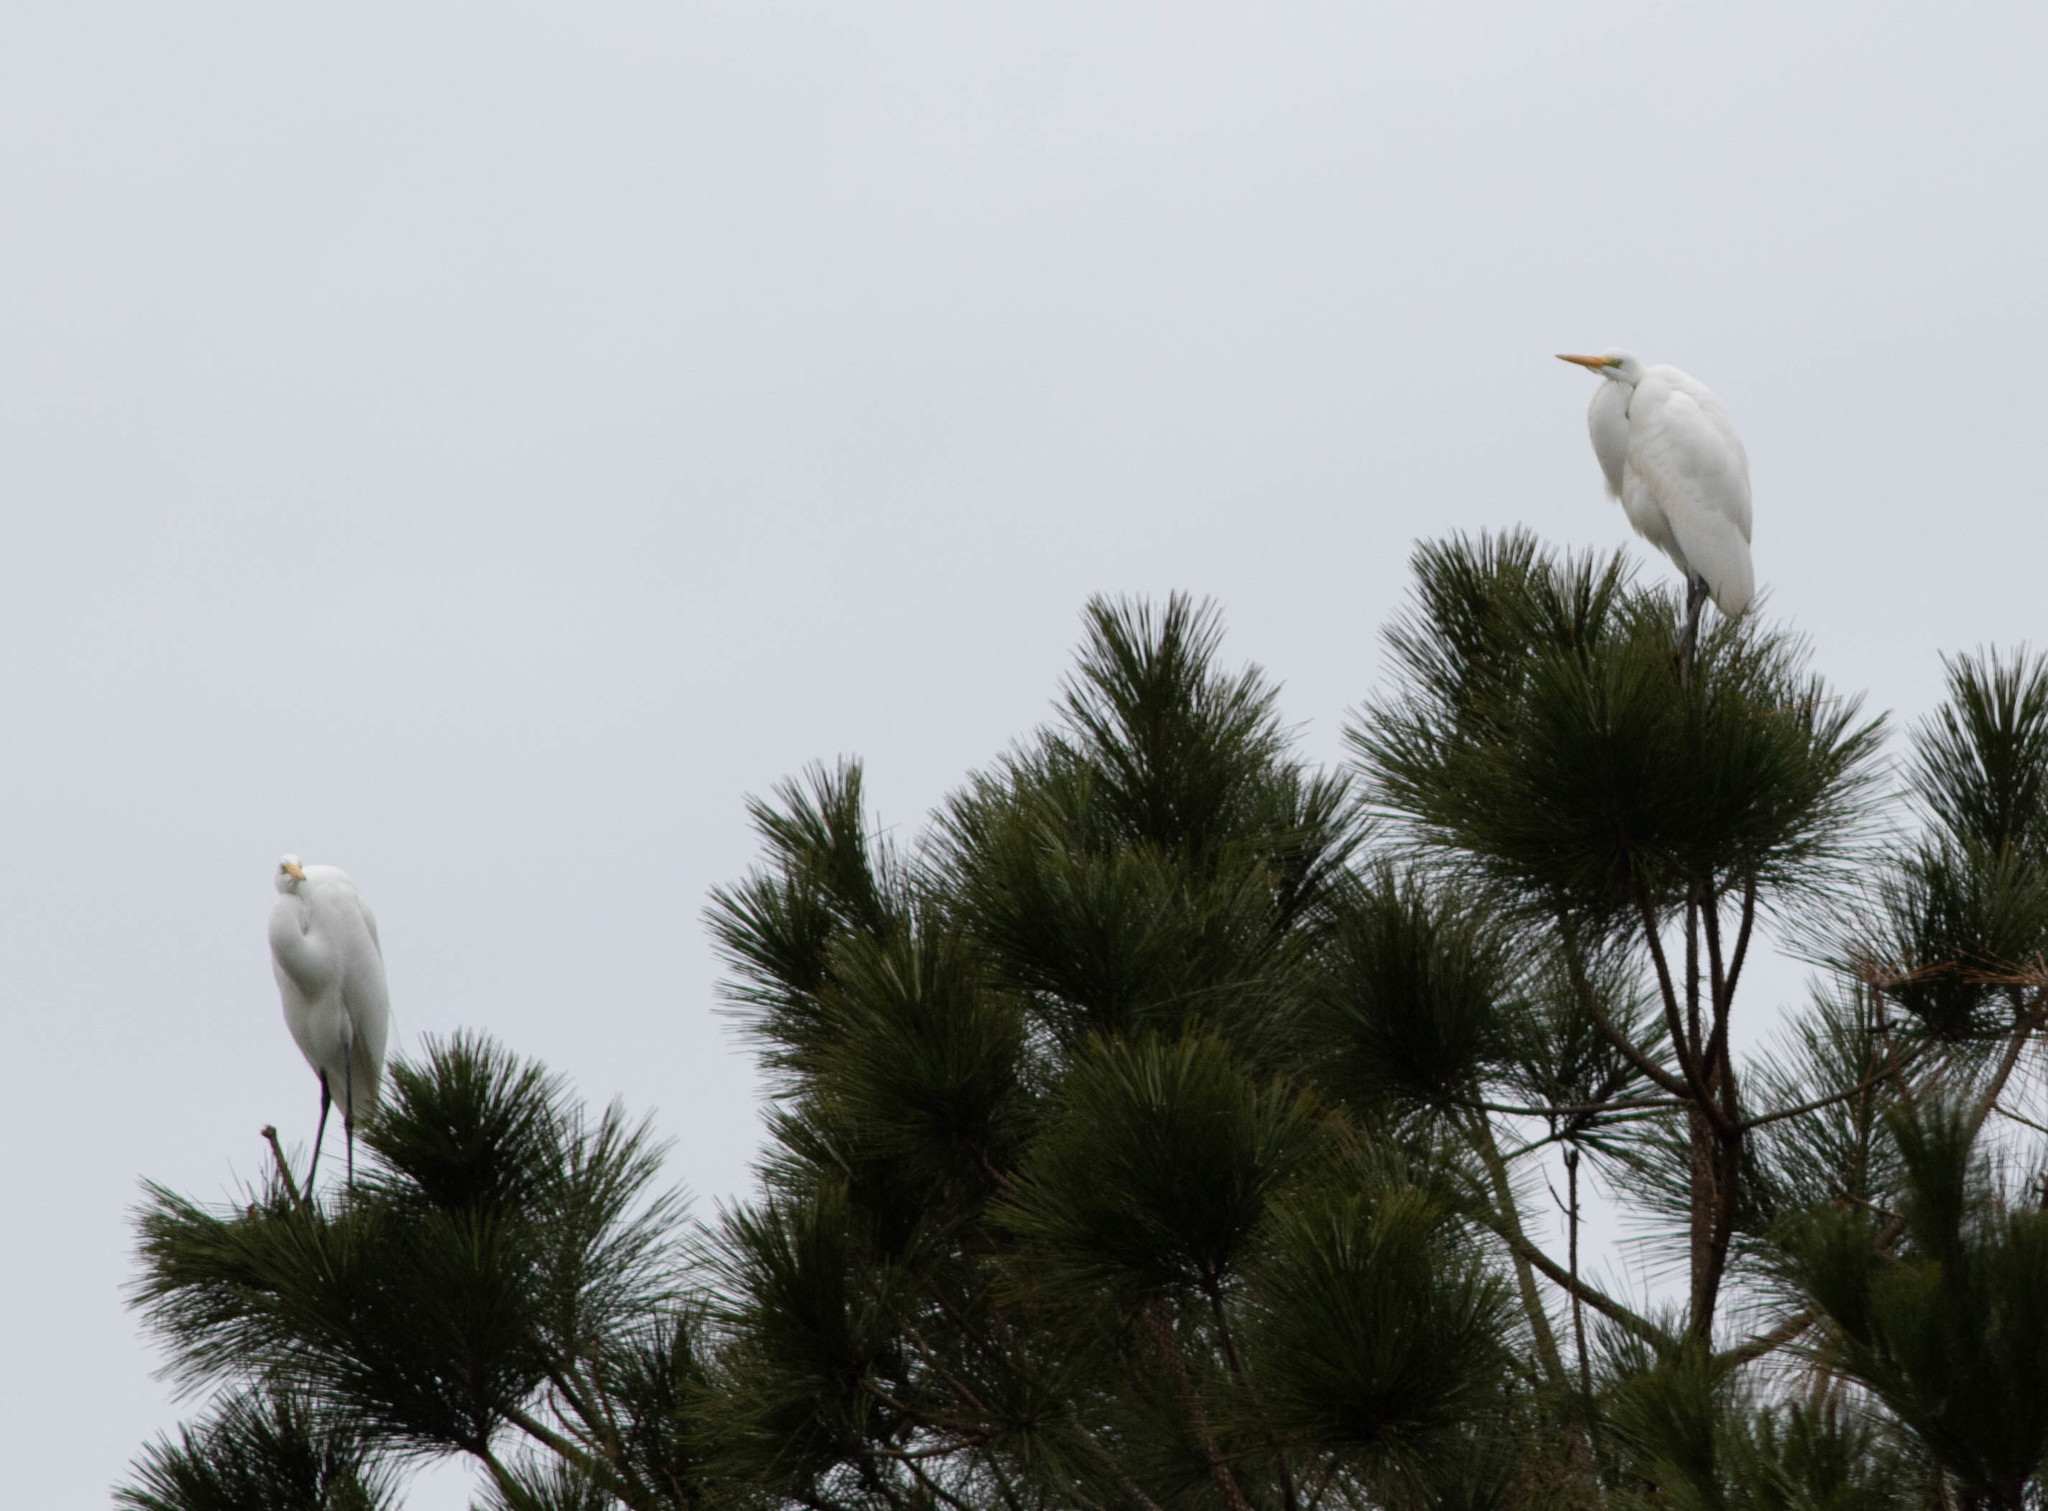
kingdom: Animalia
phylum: Chordata
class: Aves
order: Pelecaniformes
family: Ardeidae
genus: Ardea
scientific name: Ardea alba
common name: Great egret
